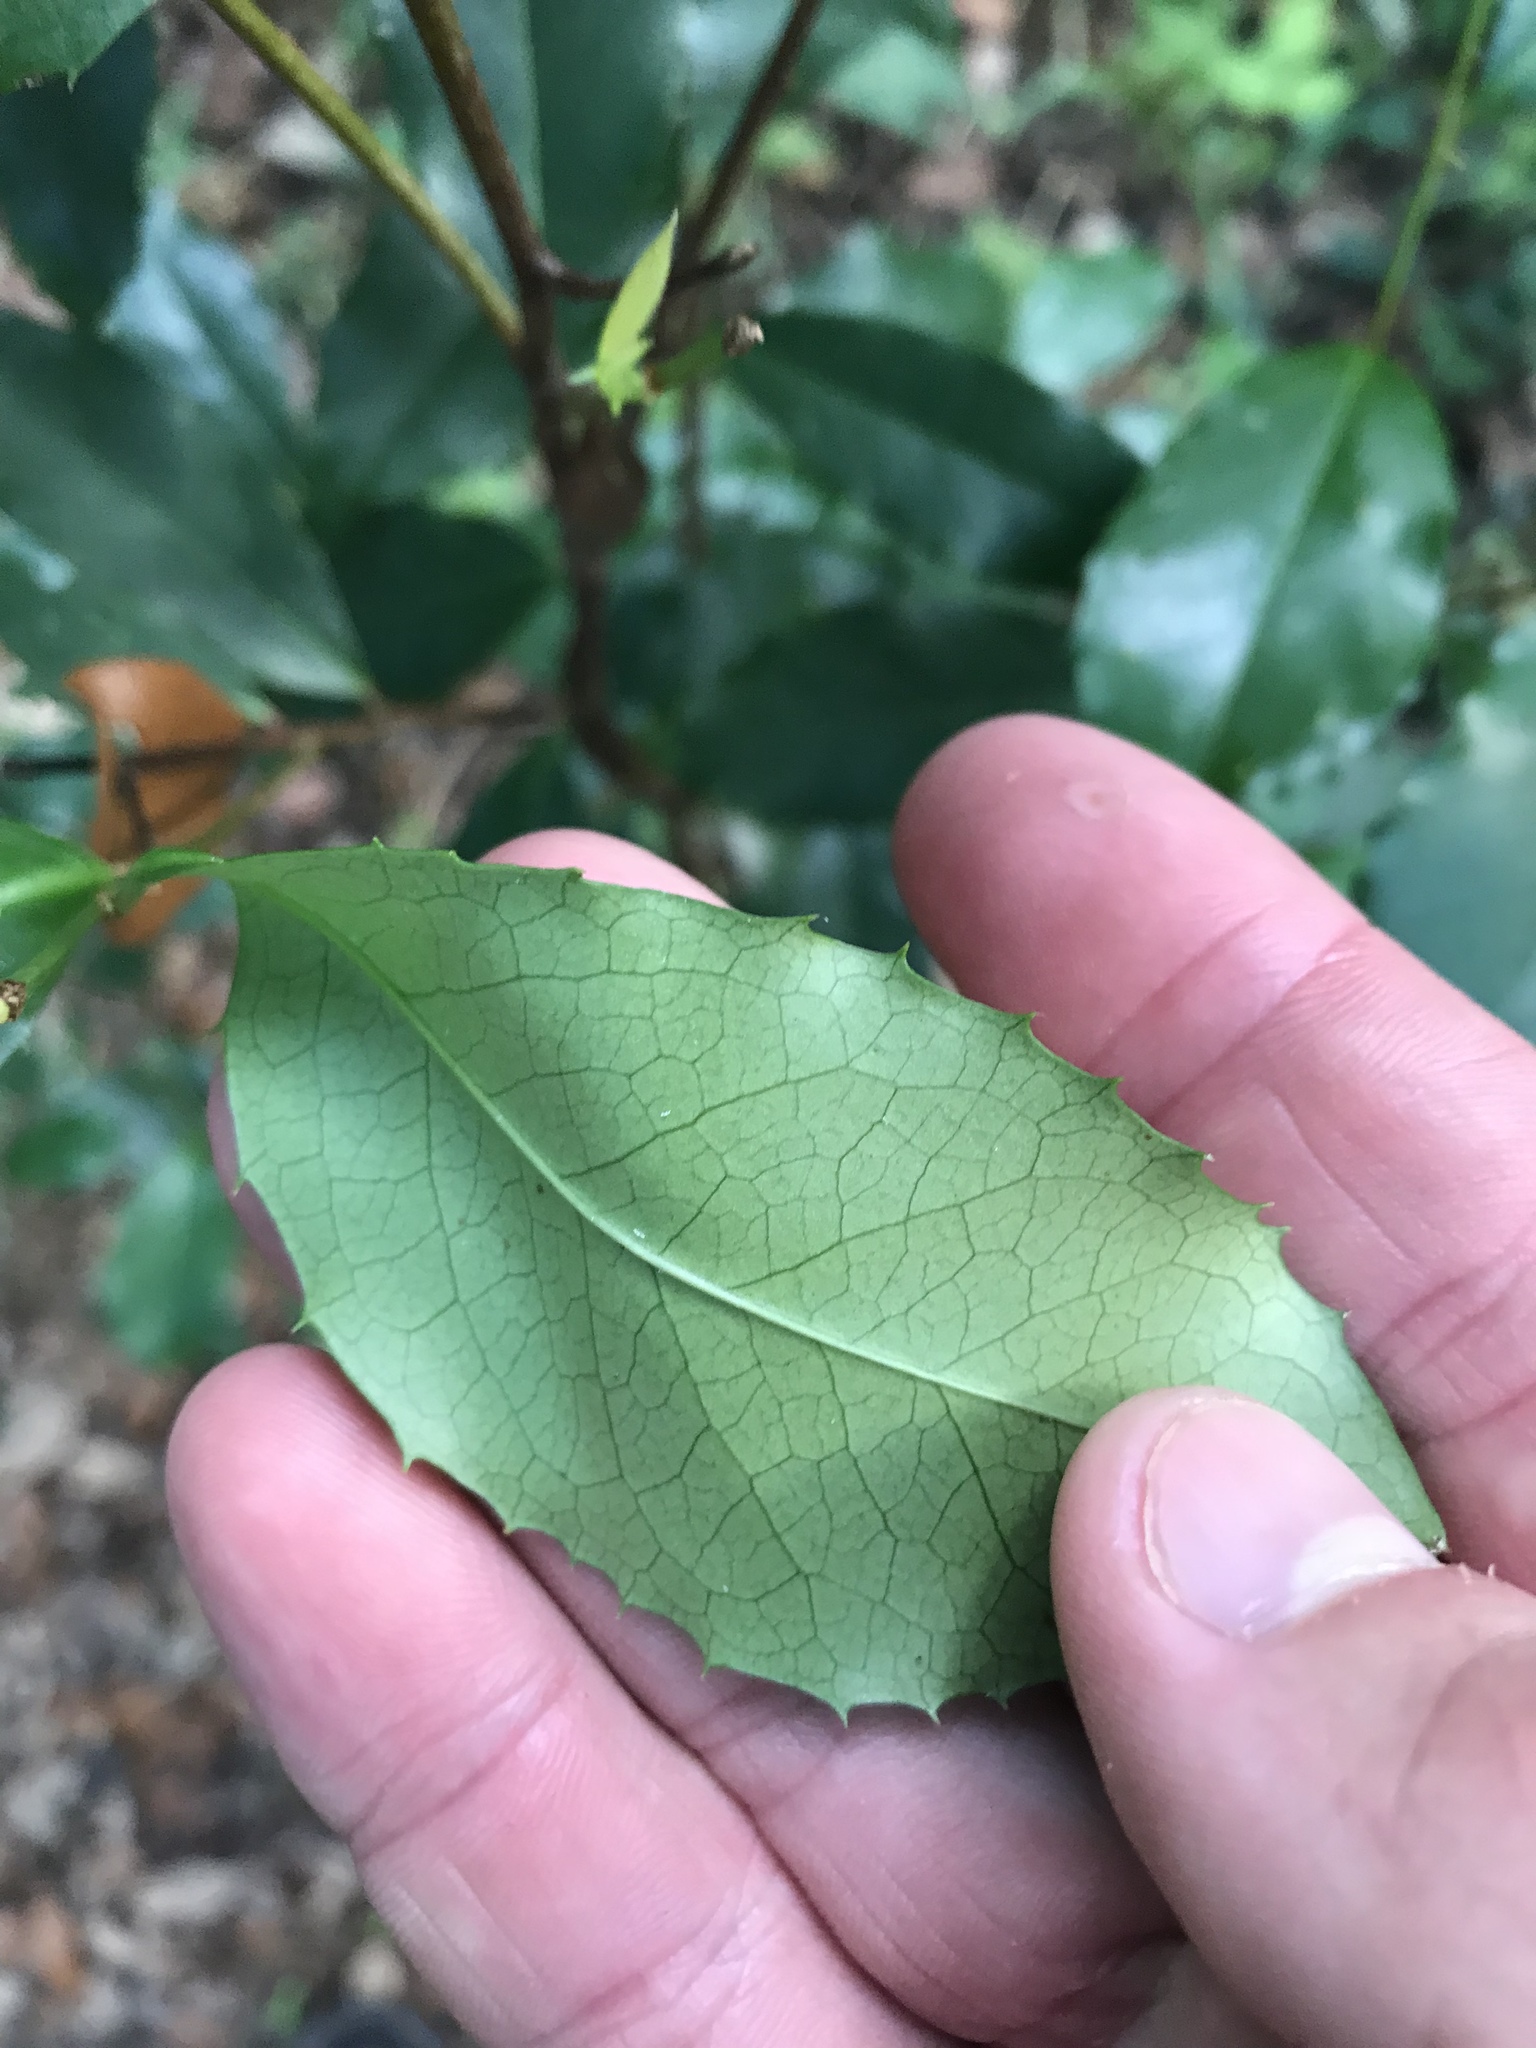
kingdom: Plantae
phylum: Tracheophyta
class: Magnoliopsida
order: Rosales
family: Rosaceae
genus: Prunus
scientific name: Prunus caroliniana
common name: Carolina laurel cherry
